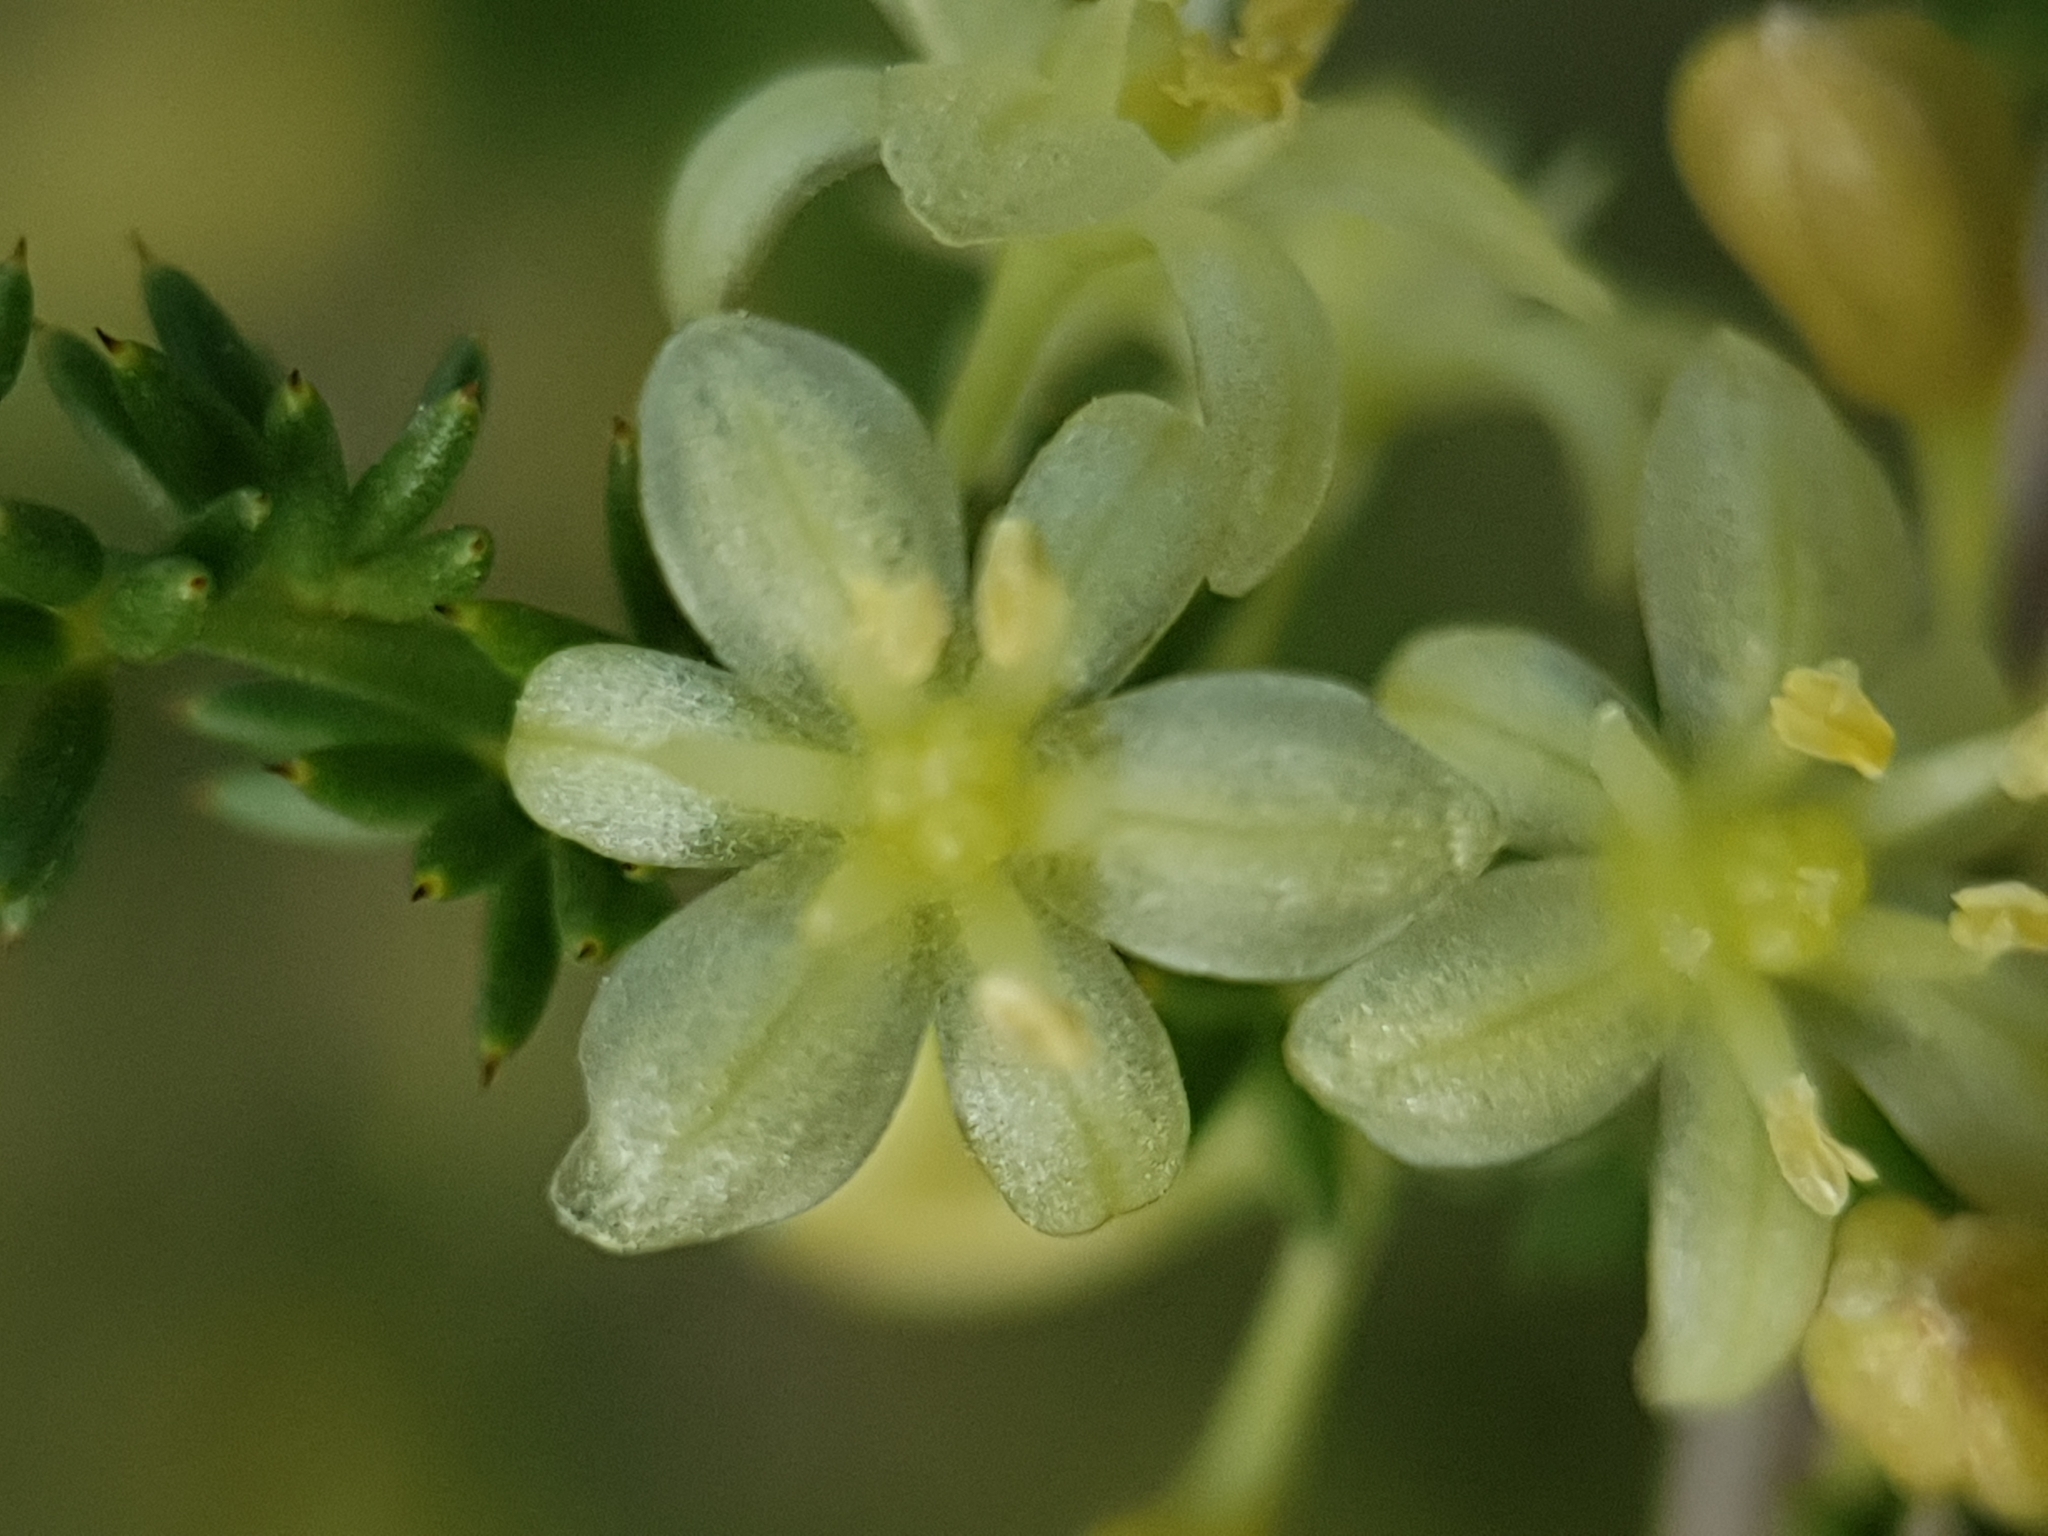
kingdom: Plantae
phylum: Tracheophyta
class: Liliopsida
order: Asparagales
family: Asparagaceae
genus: Asparagus
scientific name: Asparagus acutifolius
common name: Wild asparagus
